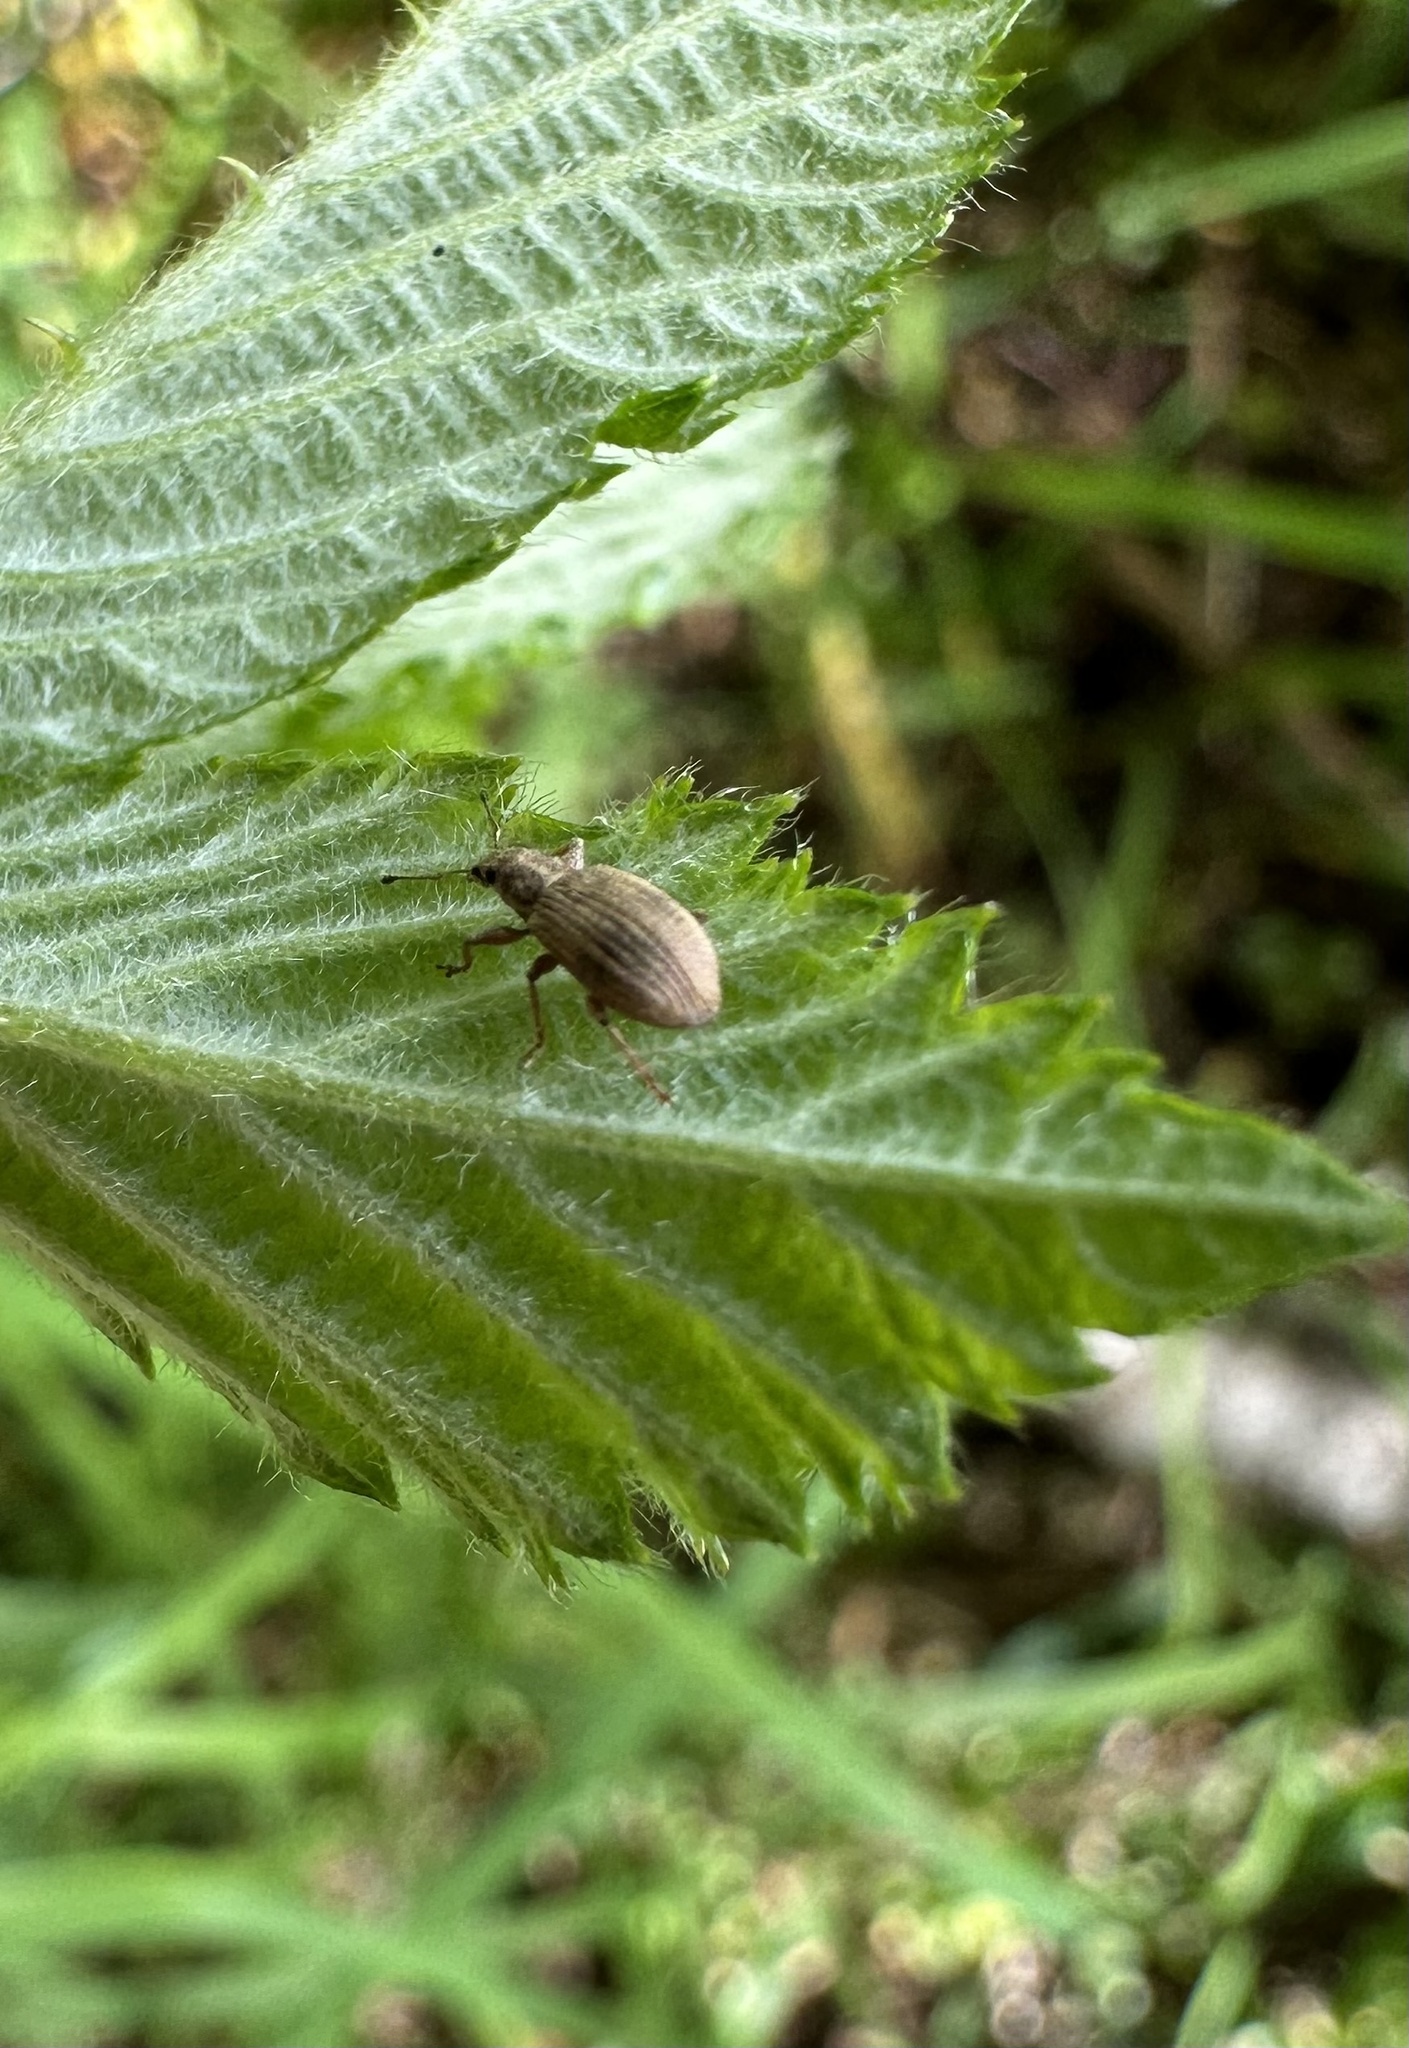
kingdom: Animalia
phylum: Arthropoda
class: Insecta
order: Coleoptera
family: Curculionidae
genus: Polydrusus
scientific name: Polydrusus nothofagi
